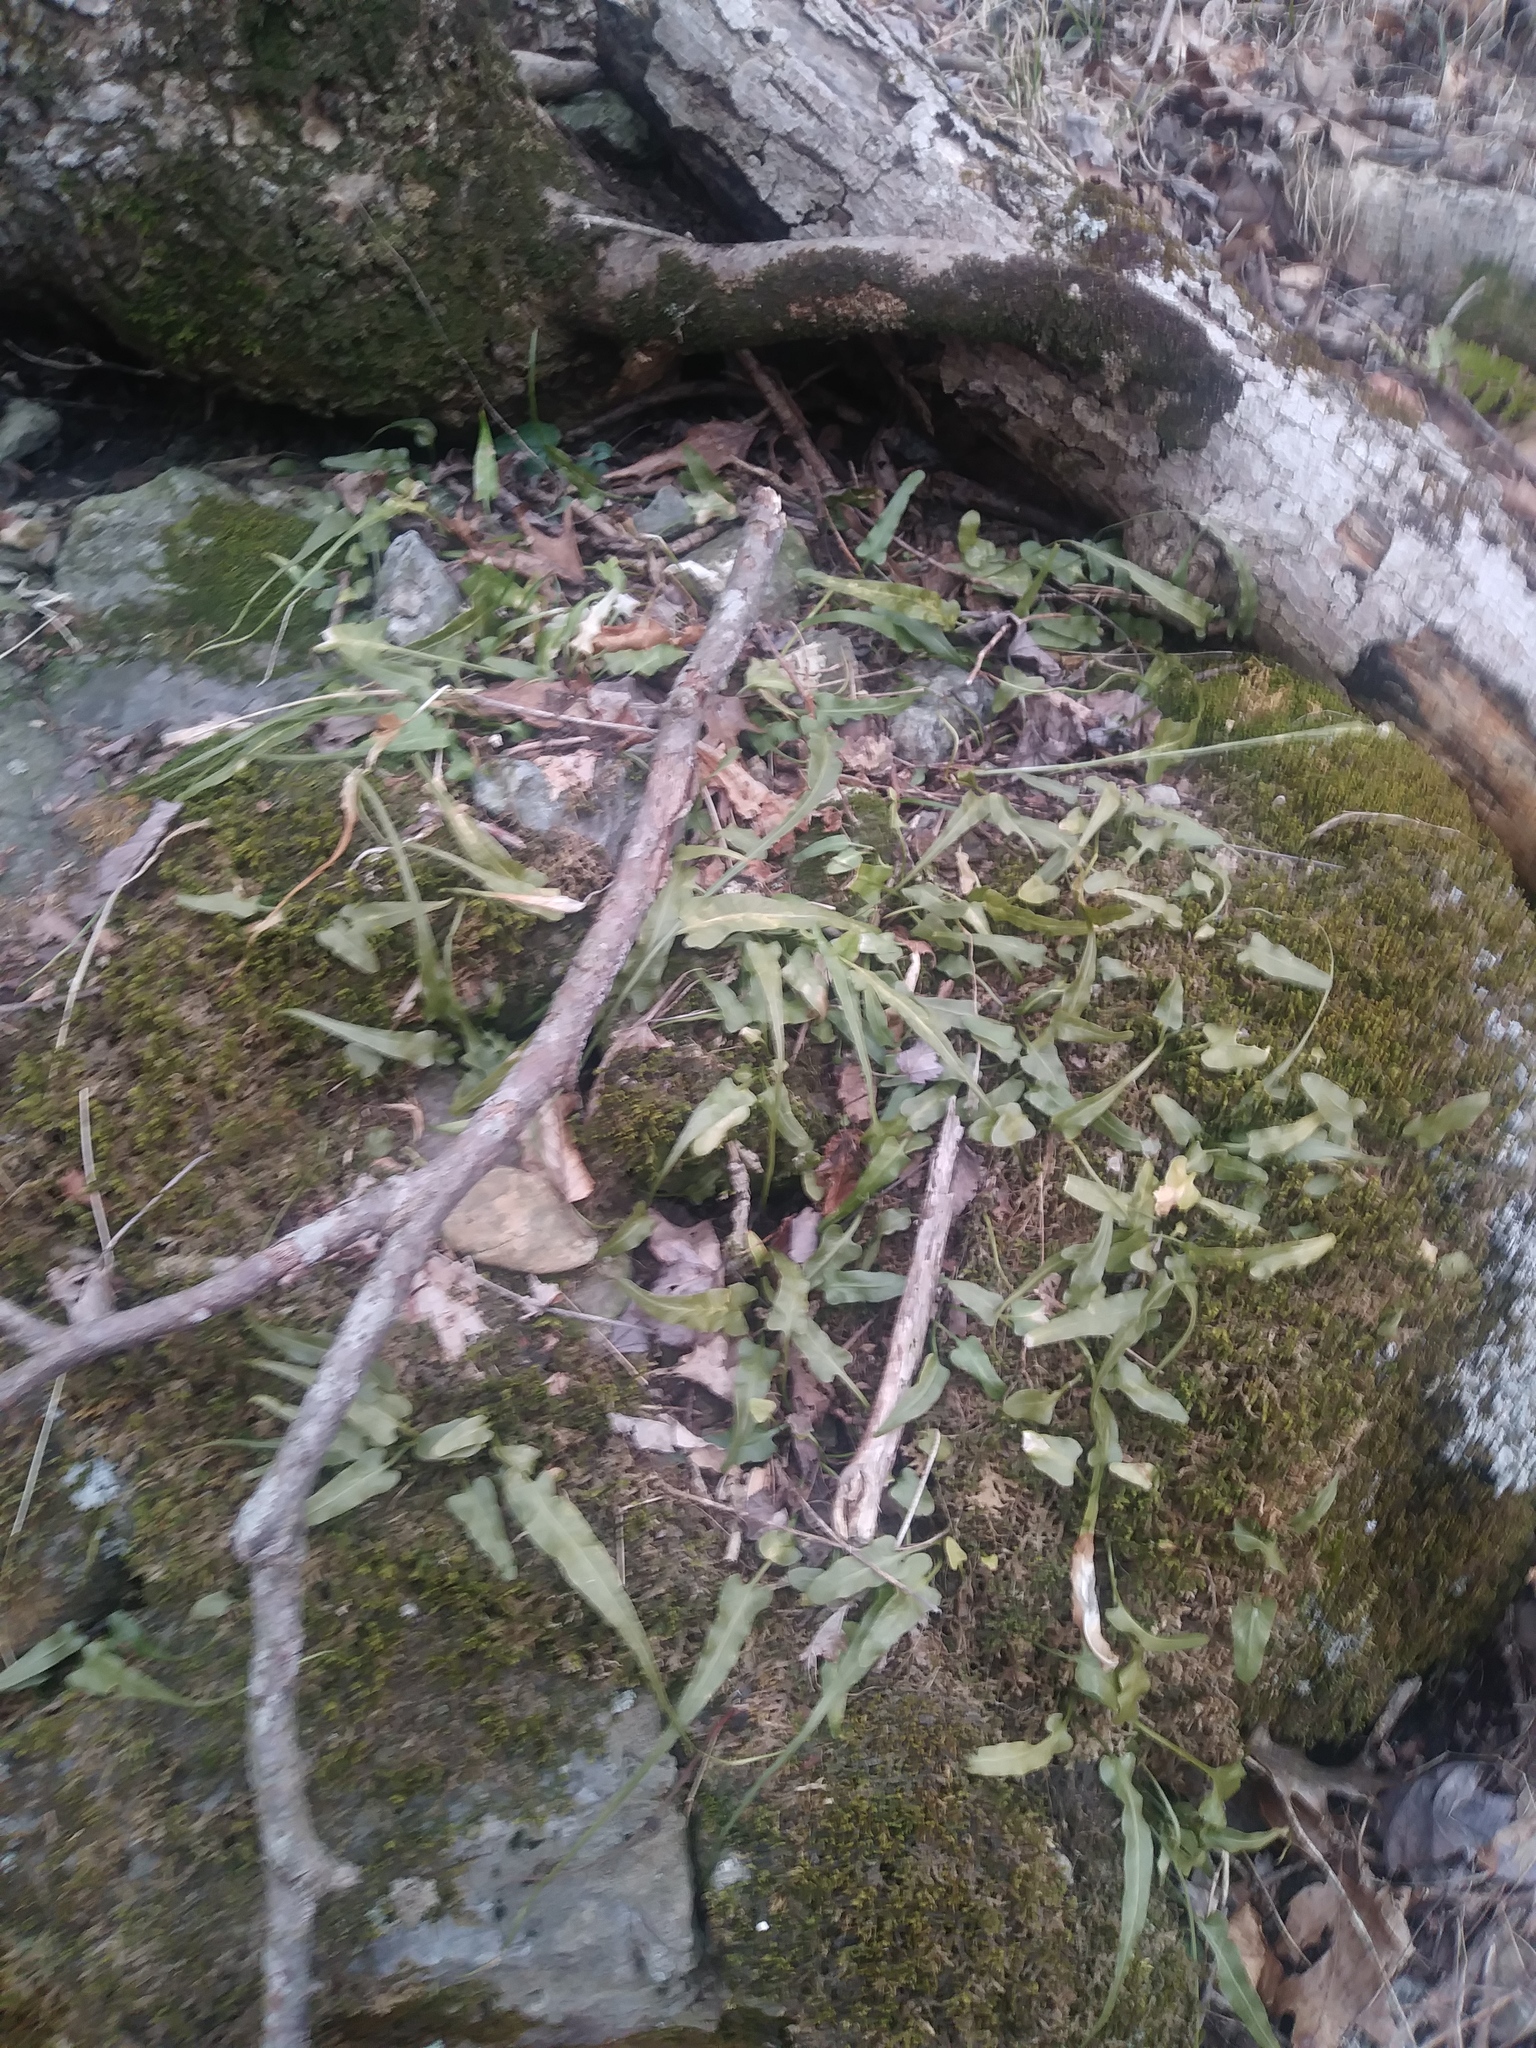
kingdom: Plantae
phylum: Tracheophyta
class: Polypodiopsida
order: Polypodiales
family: Aspleniaceae
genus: Asplenium
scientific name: Asplenium rhizophyllum
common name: Walking fern
